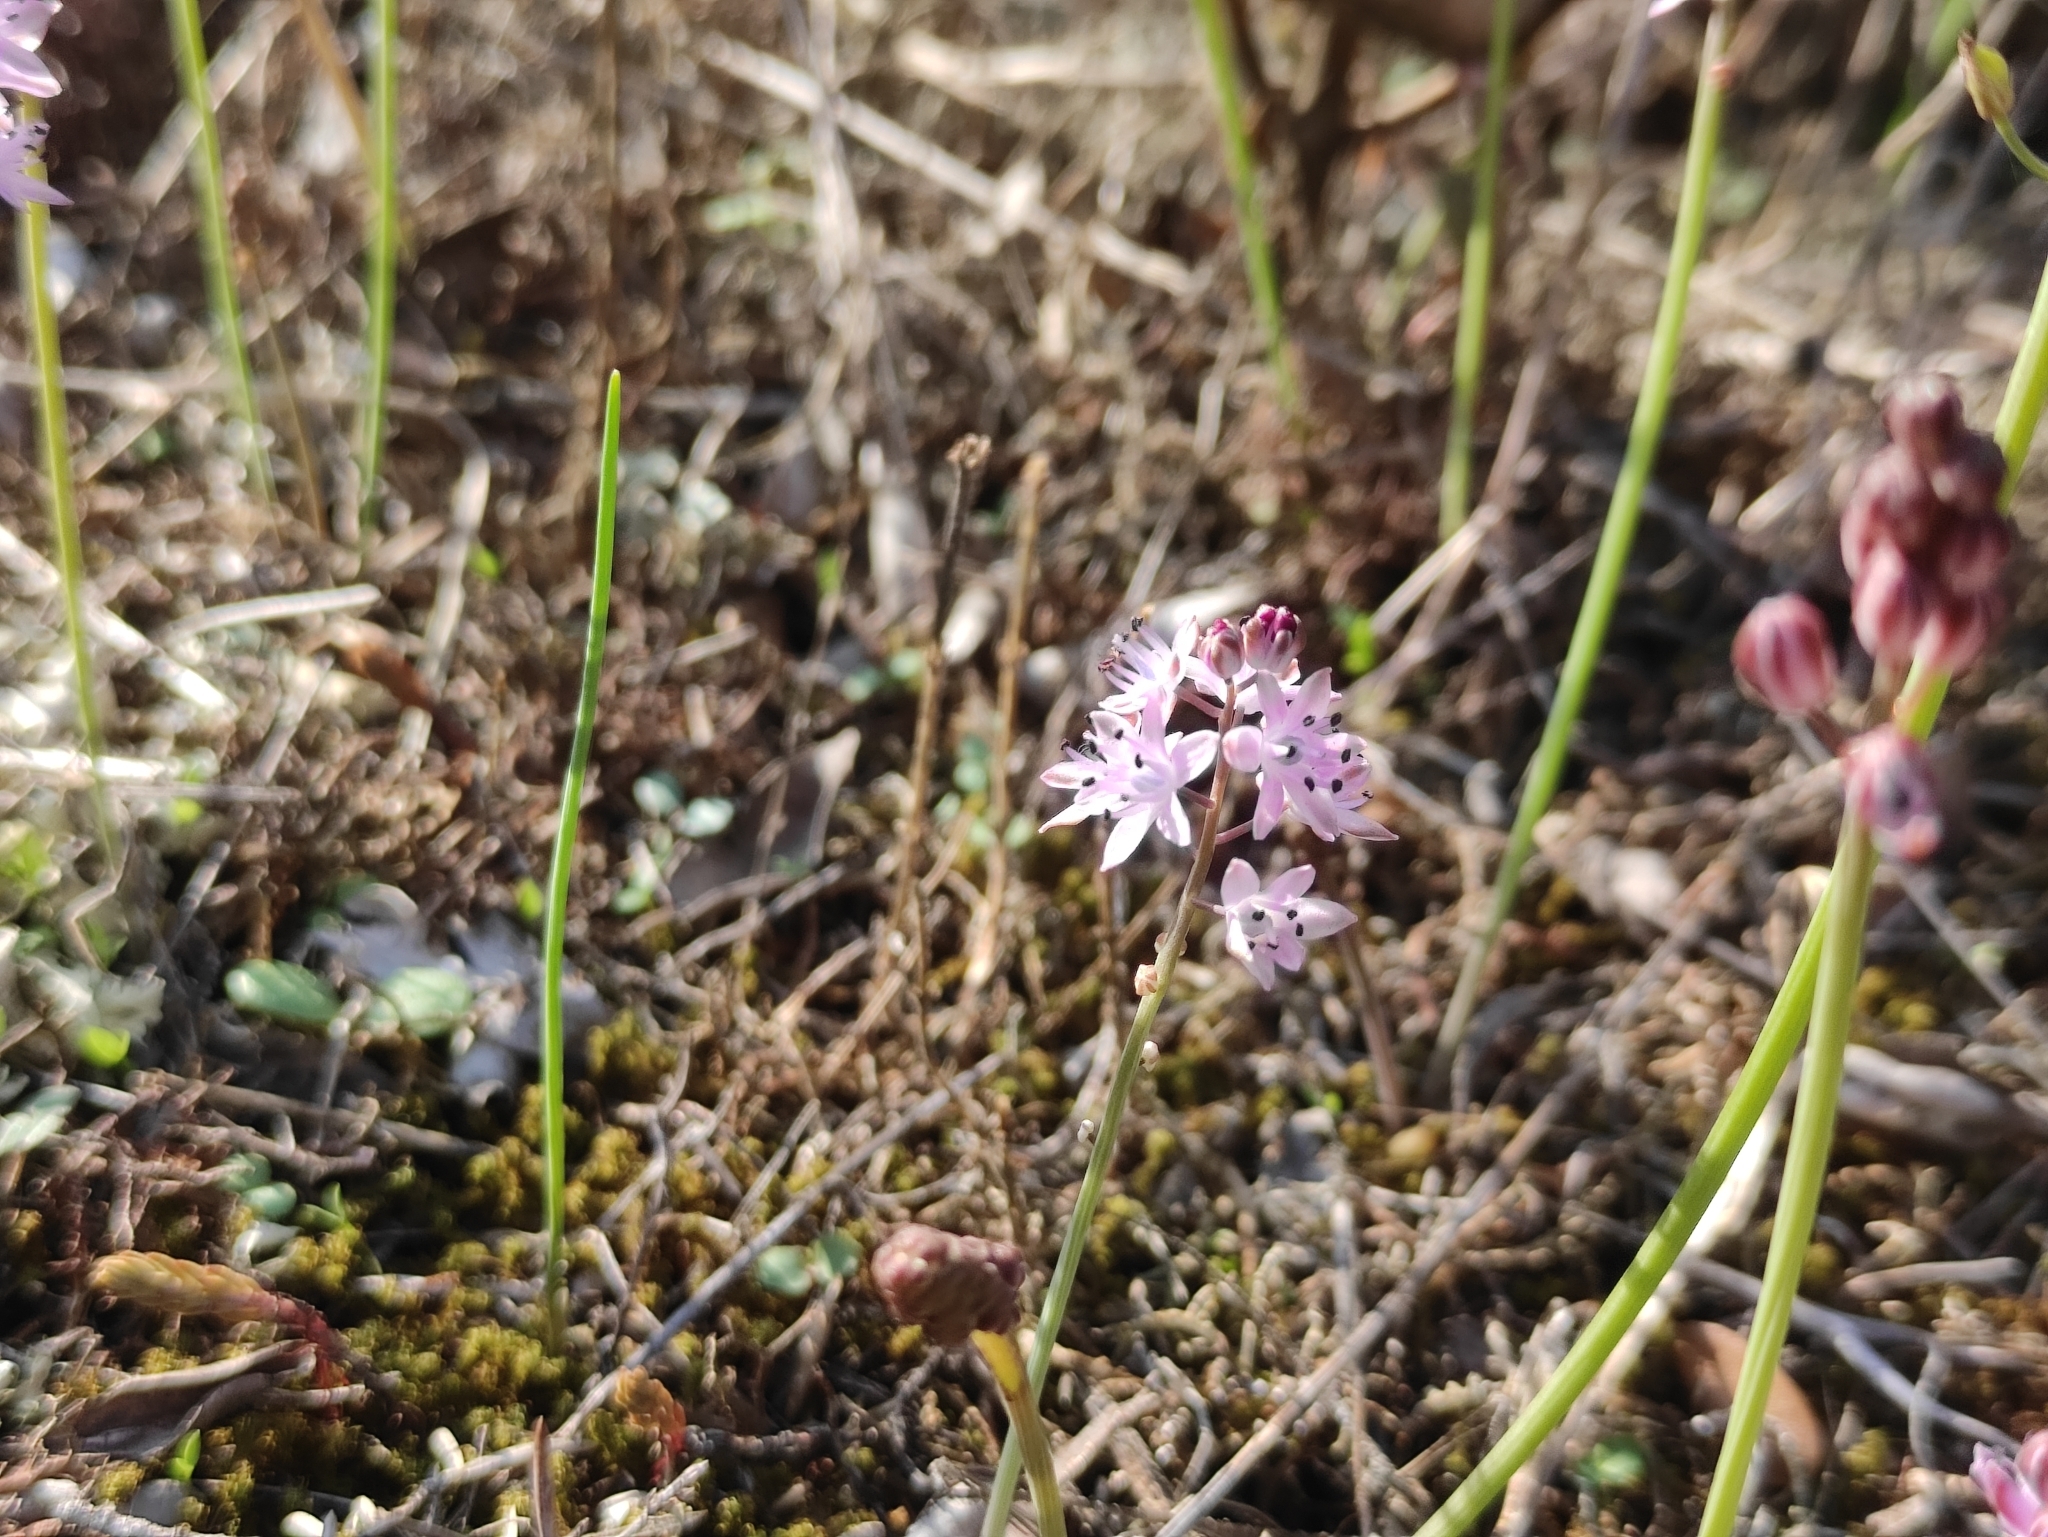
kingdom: Plantae
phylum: Tracheophyta
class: Liliopsida
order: Asparagales
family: Asparagaceae
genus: Prospero
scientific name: Prospero autumnale
